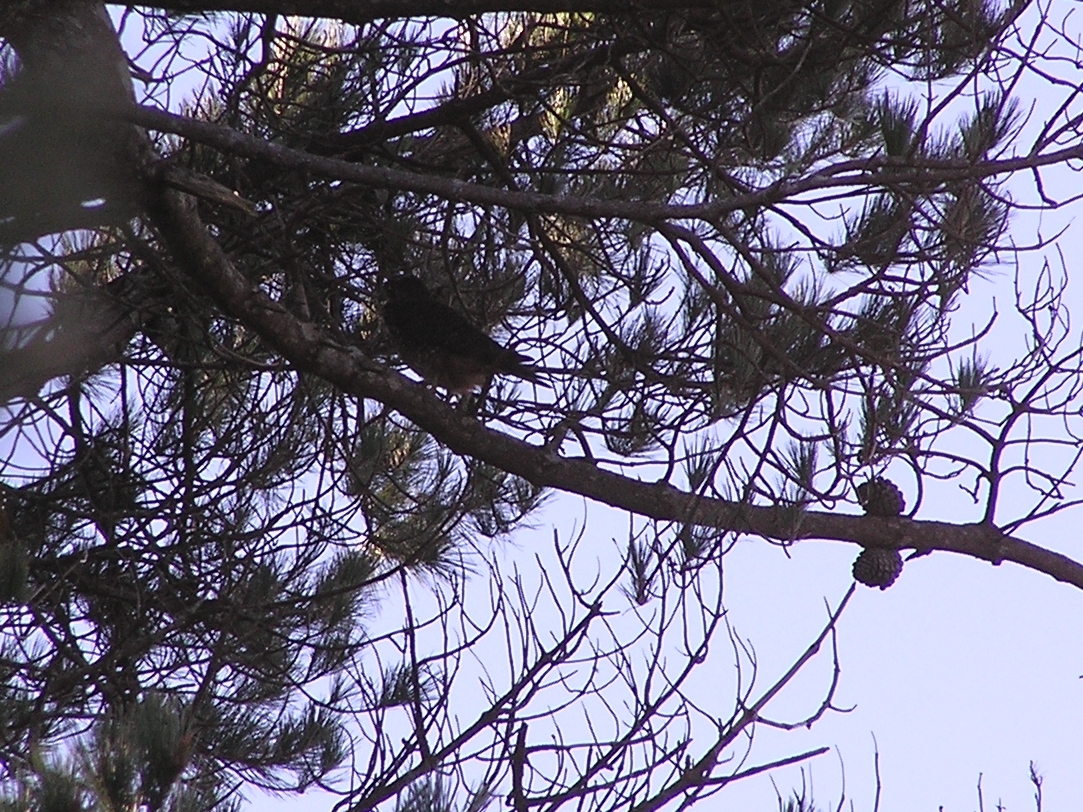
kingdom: Animalia
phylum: Chordata
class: Aves
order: Falconiformes
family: Falconidae
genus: Falco
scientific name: Falco novaeseelandiae
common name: New zealand falcon
